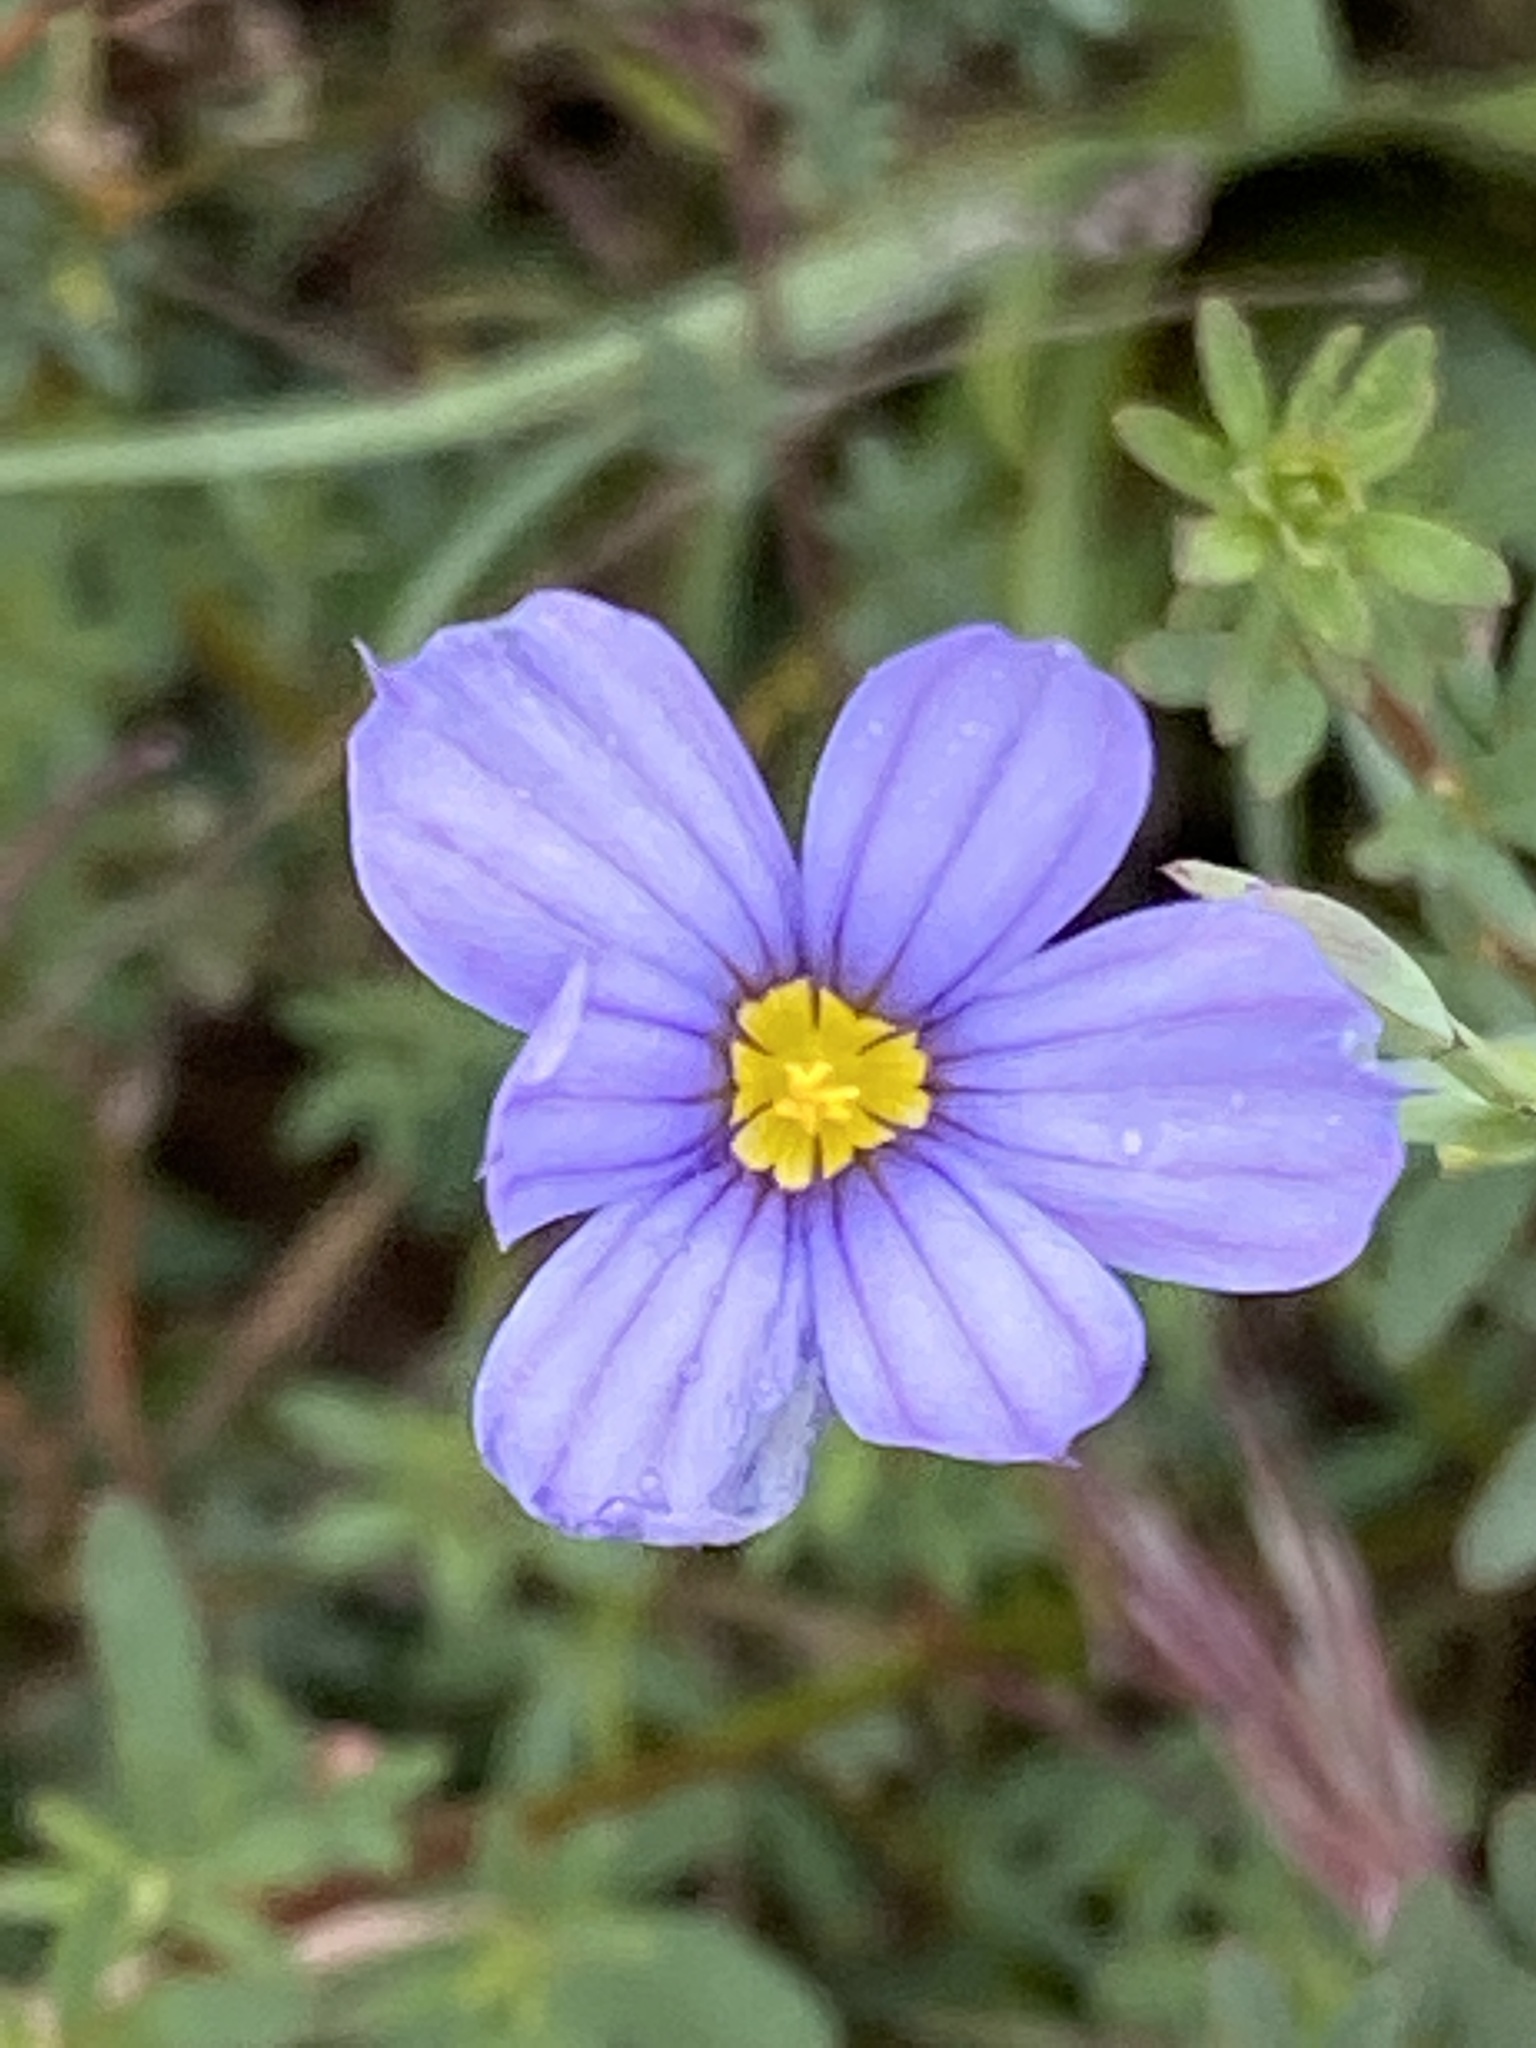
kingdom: Plantae
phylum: Tracheophyta
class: Liliopsida
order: Asparagales
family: Iridaceae
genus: Sisyrinchium
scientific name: Sisyrinchium bellum
